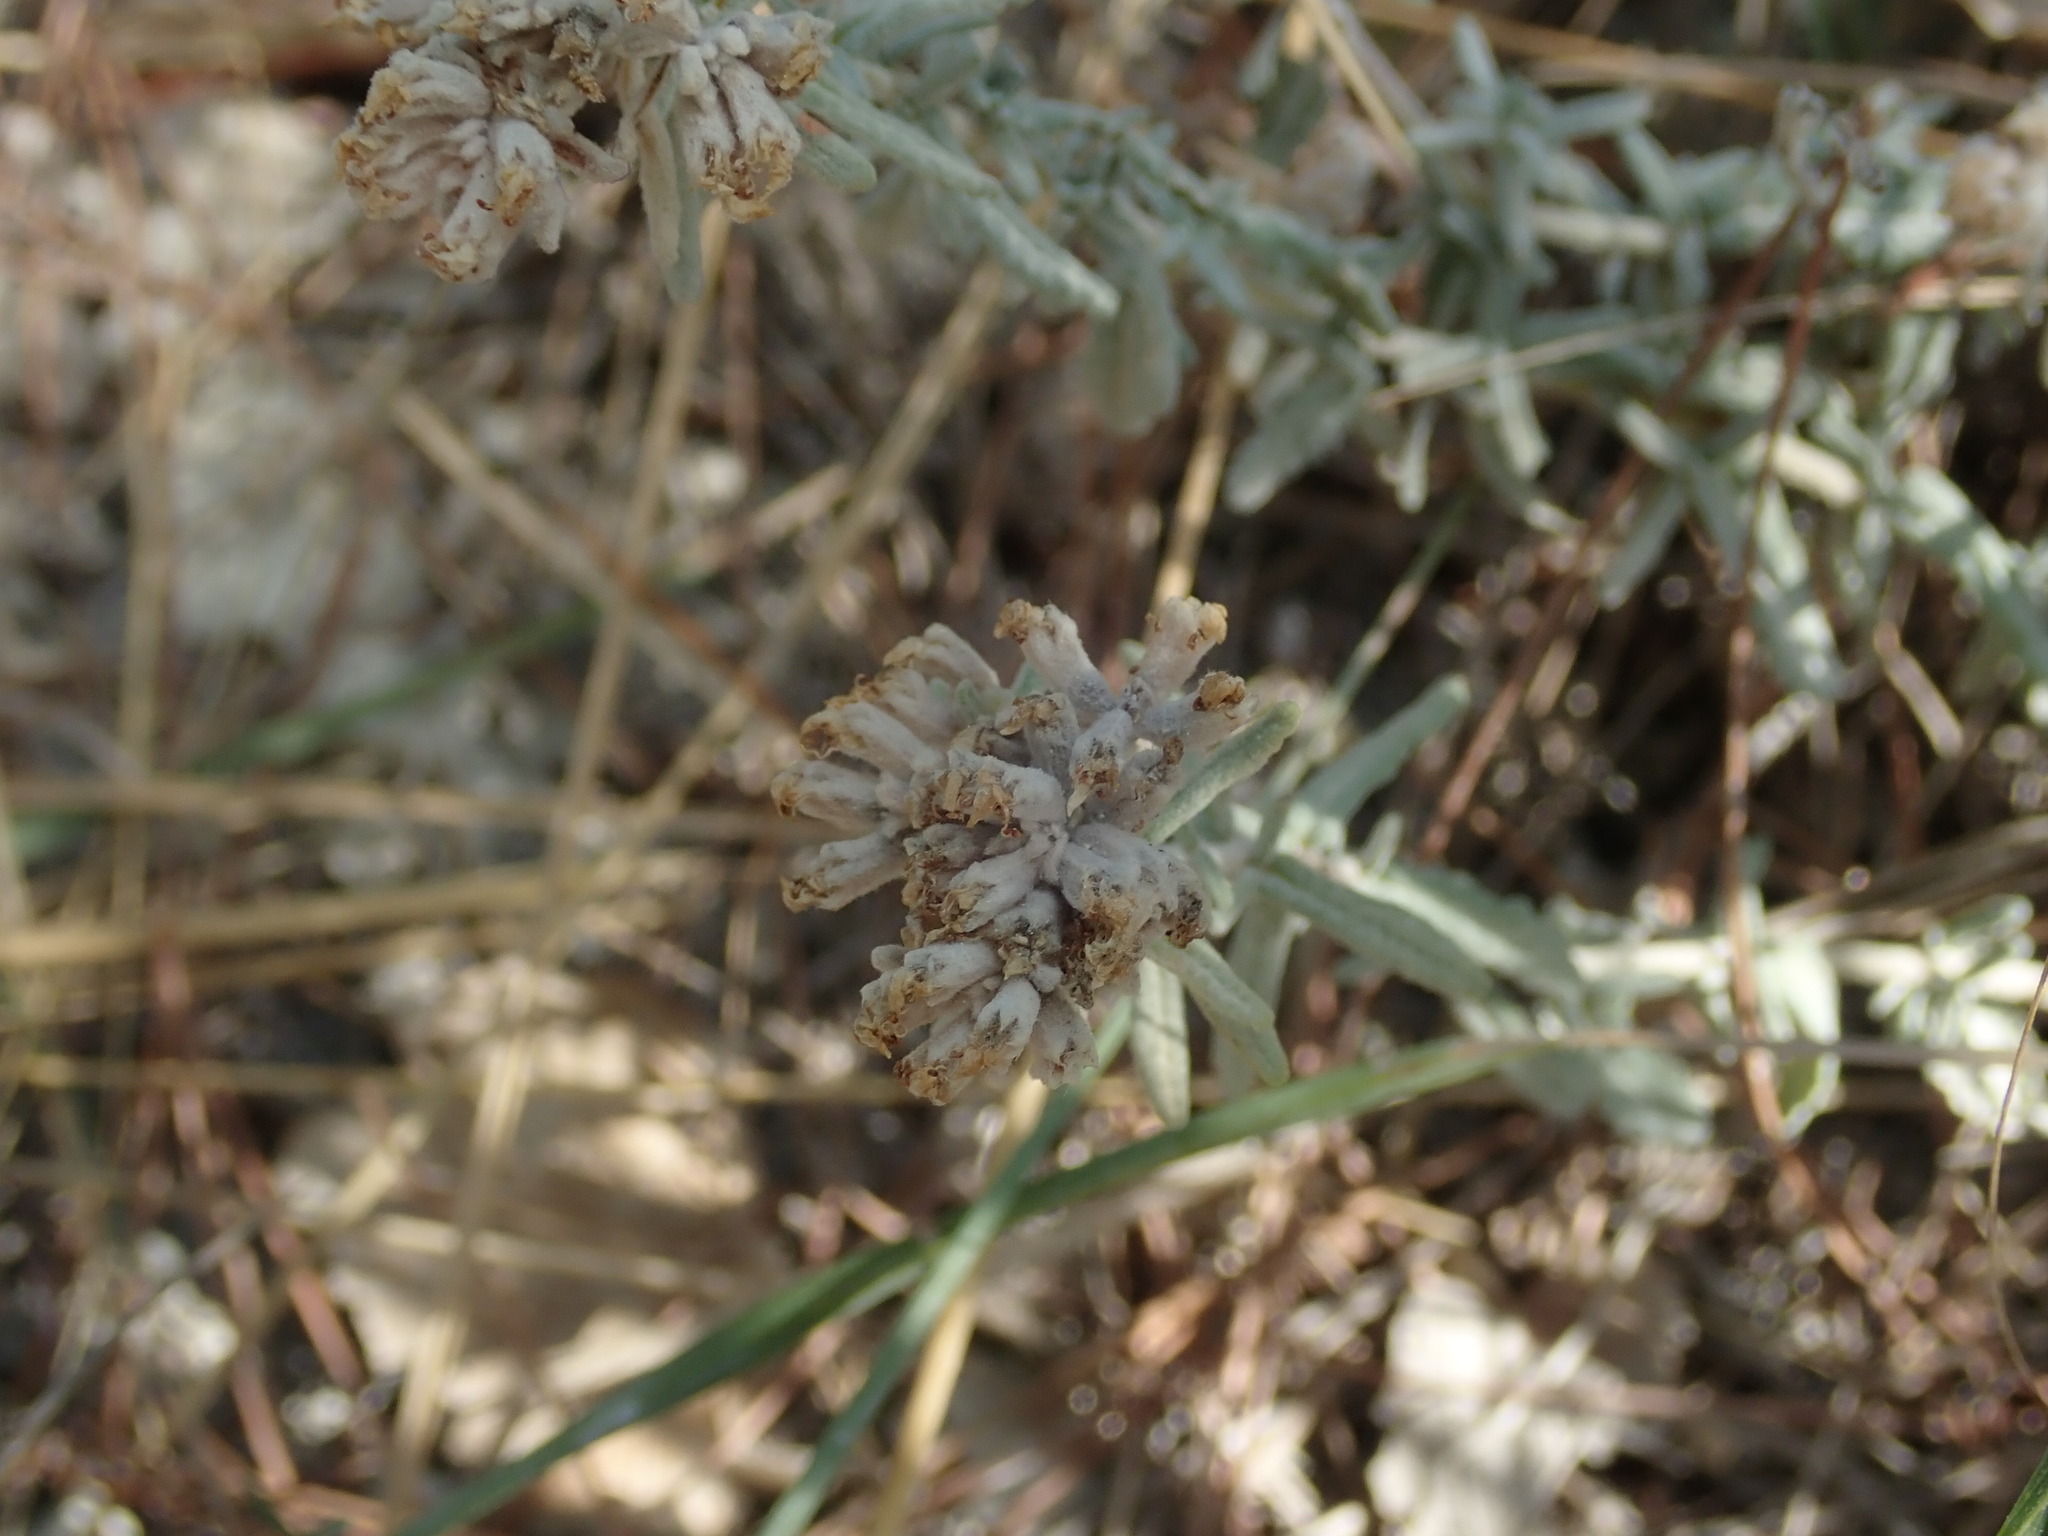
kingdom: Plantae
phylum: Tracheophyta
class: Magnoliopsida
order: Lamiales
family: Lamiaceae
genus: Teucrium
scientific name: Teucrium capitatum
